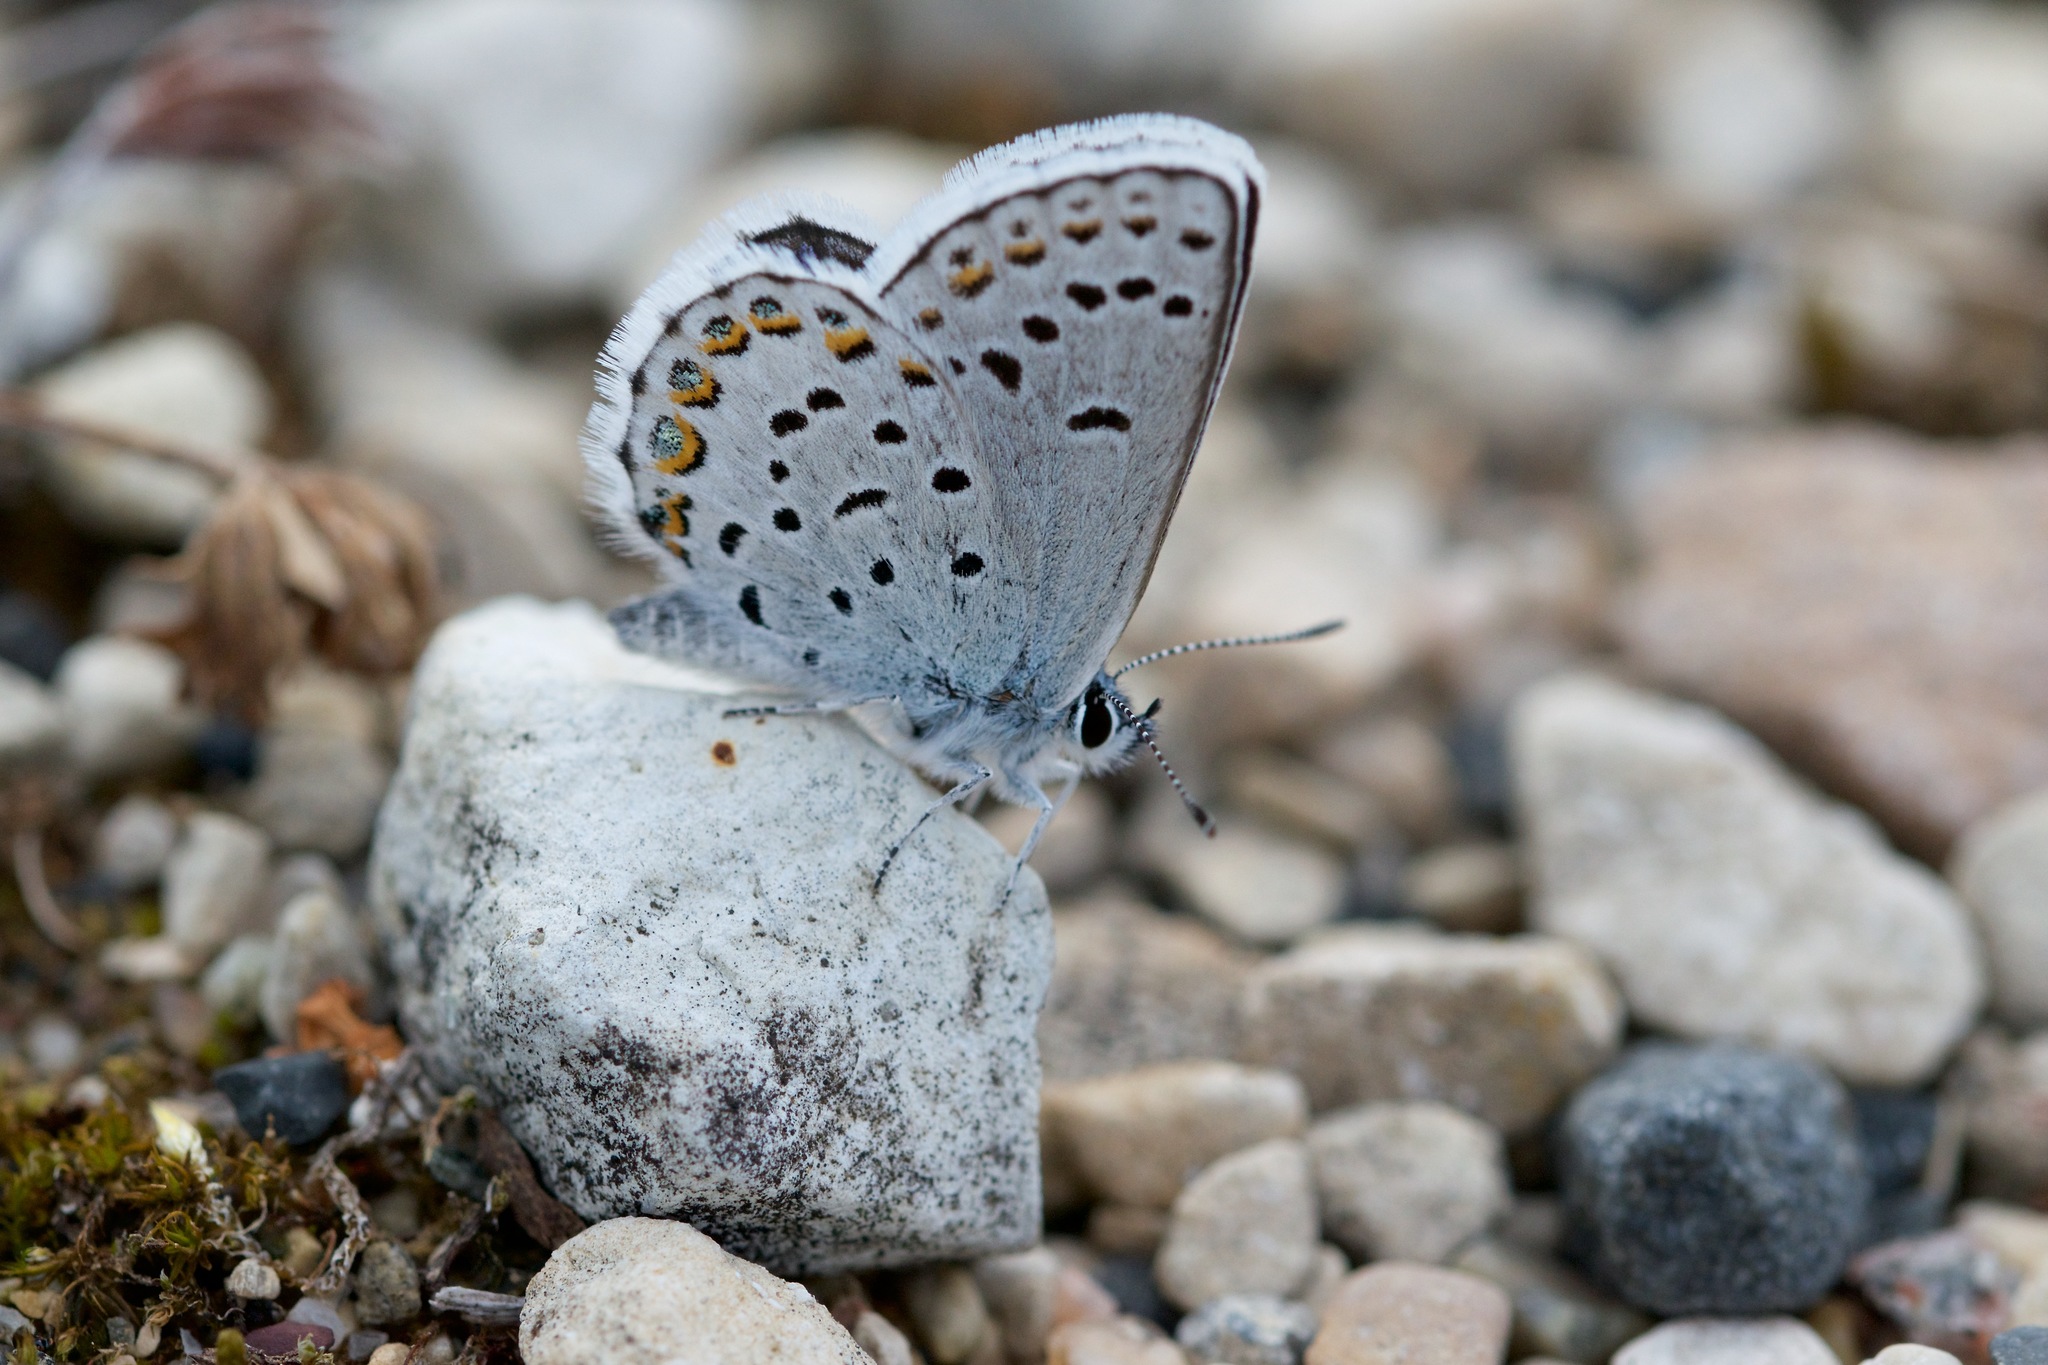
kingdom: Animalia
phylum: Arthropoda
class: Insecta
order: Lepidoptera
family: Lycaenidae
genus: Lycaeides
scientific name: Lycaeides idas
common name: Northern blue
